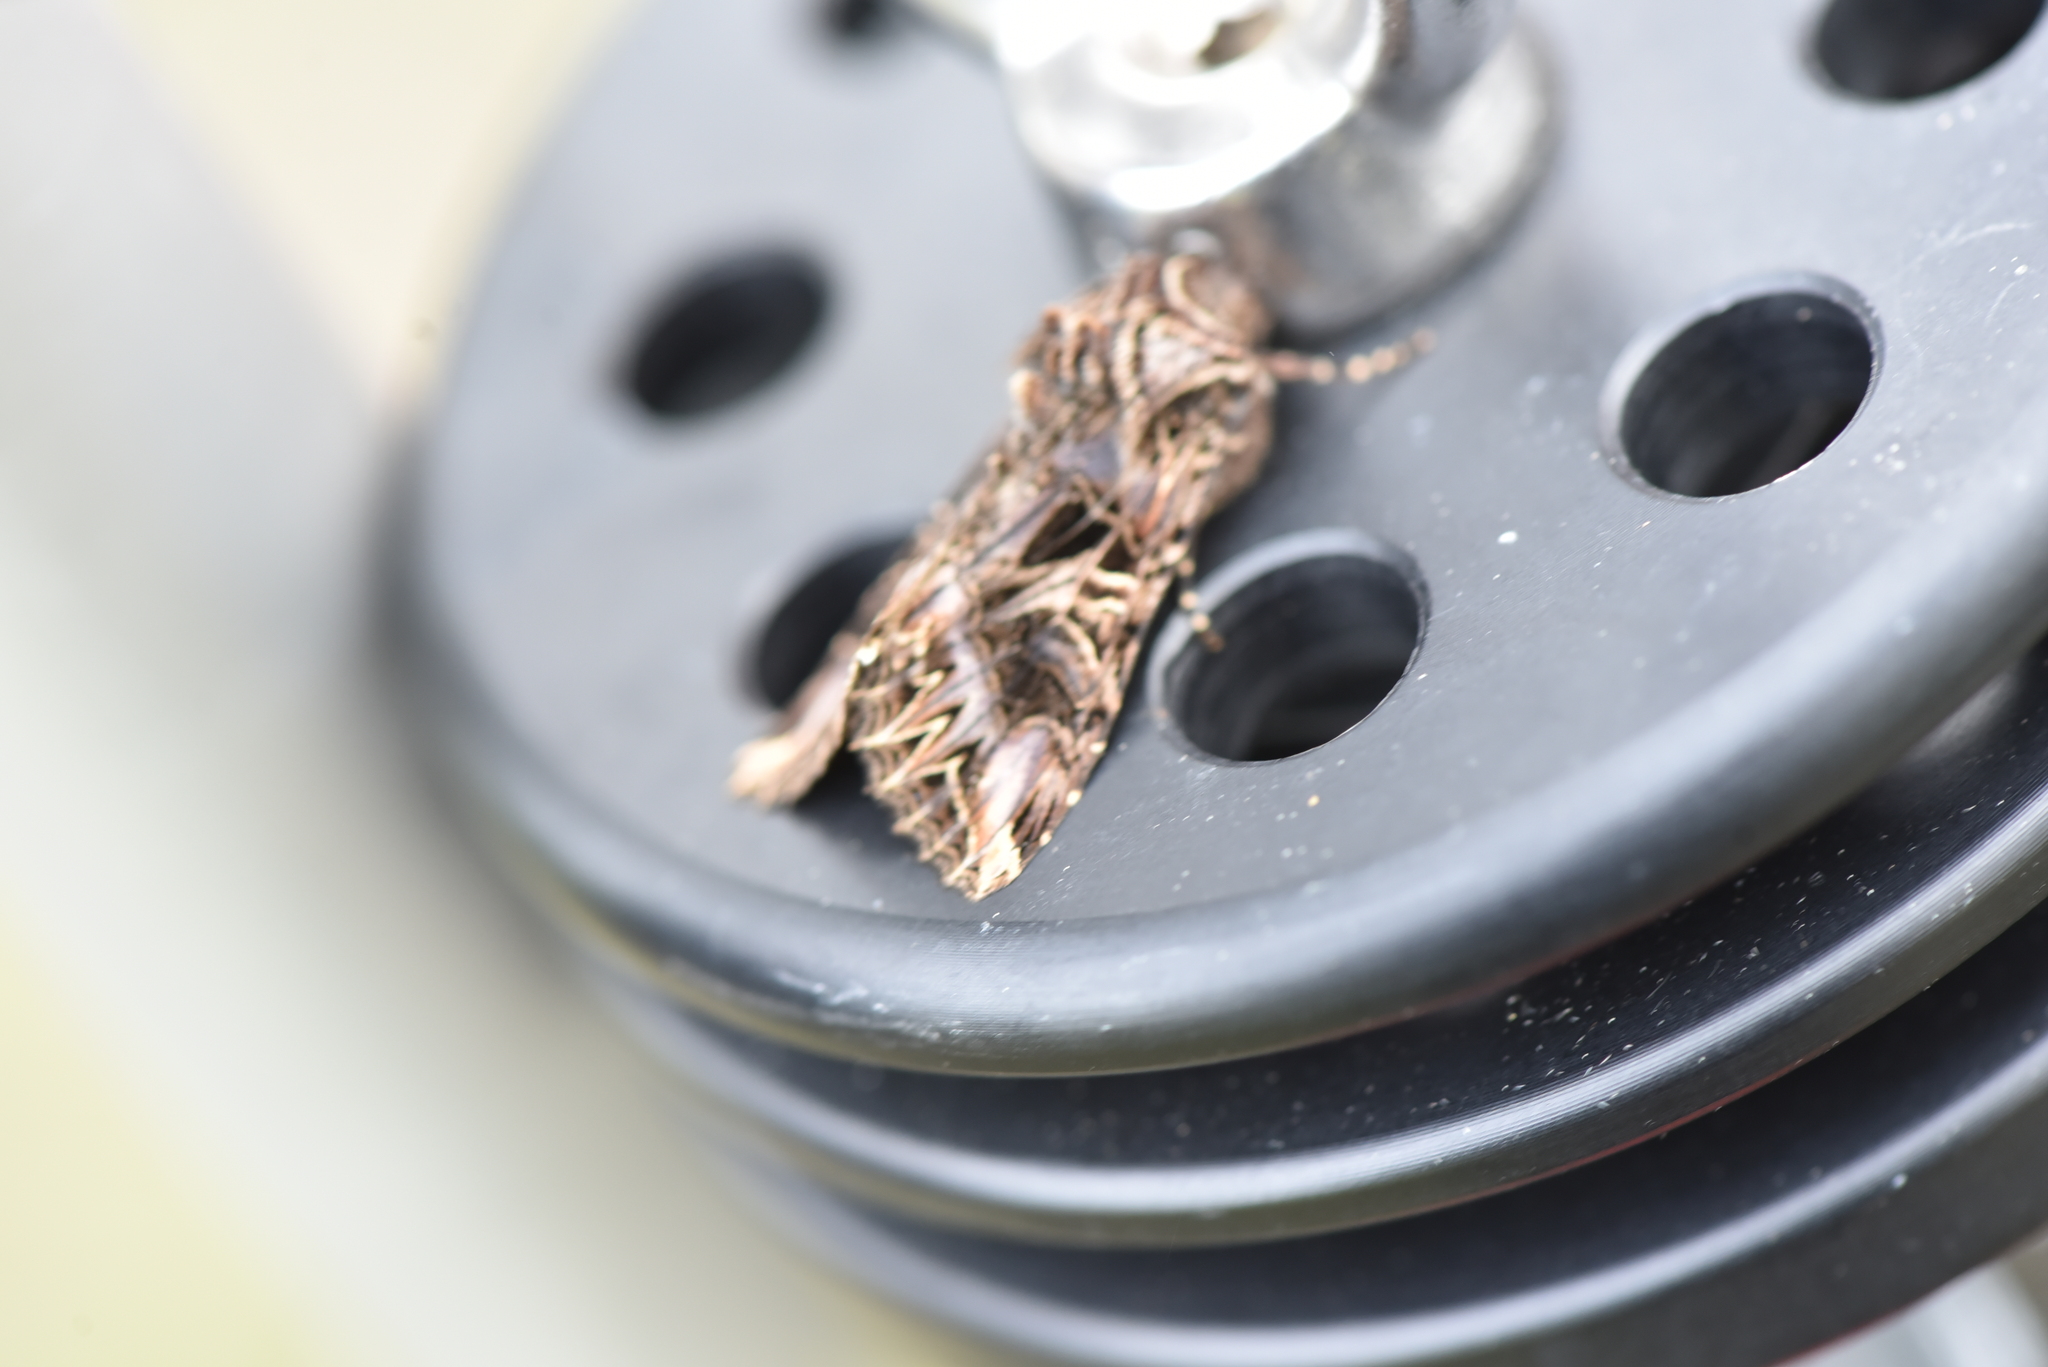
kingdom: Animalia
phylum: Arthropoda
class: Insecta
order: Lepidoptera
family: Noctuidae
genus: Anarta
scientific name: Anarta farnhami
